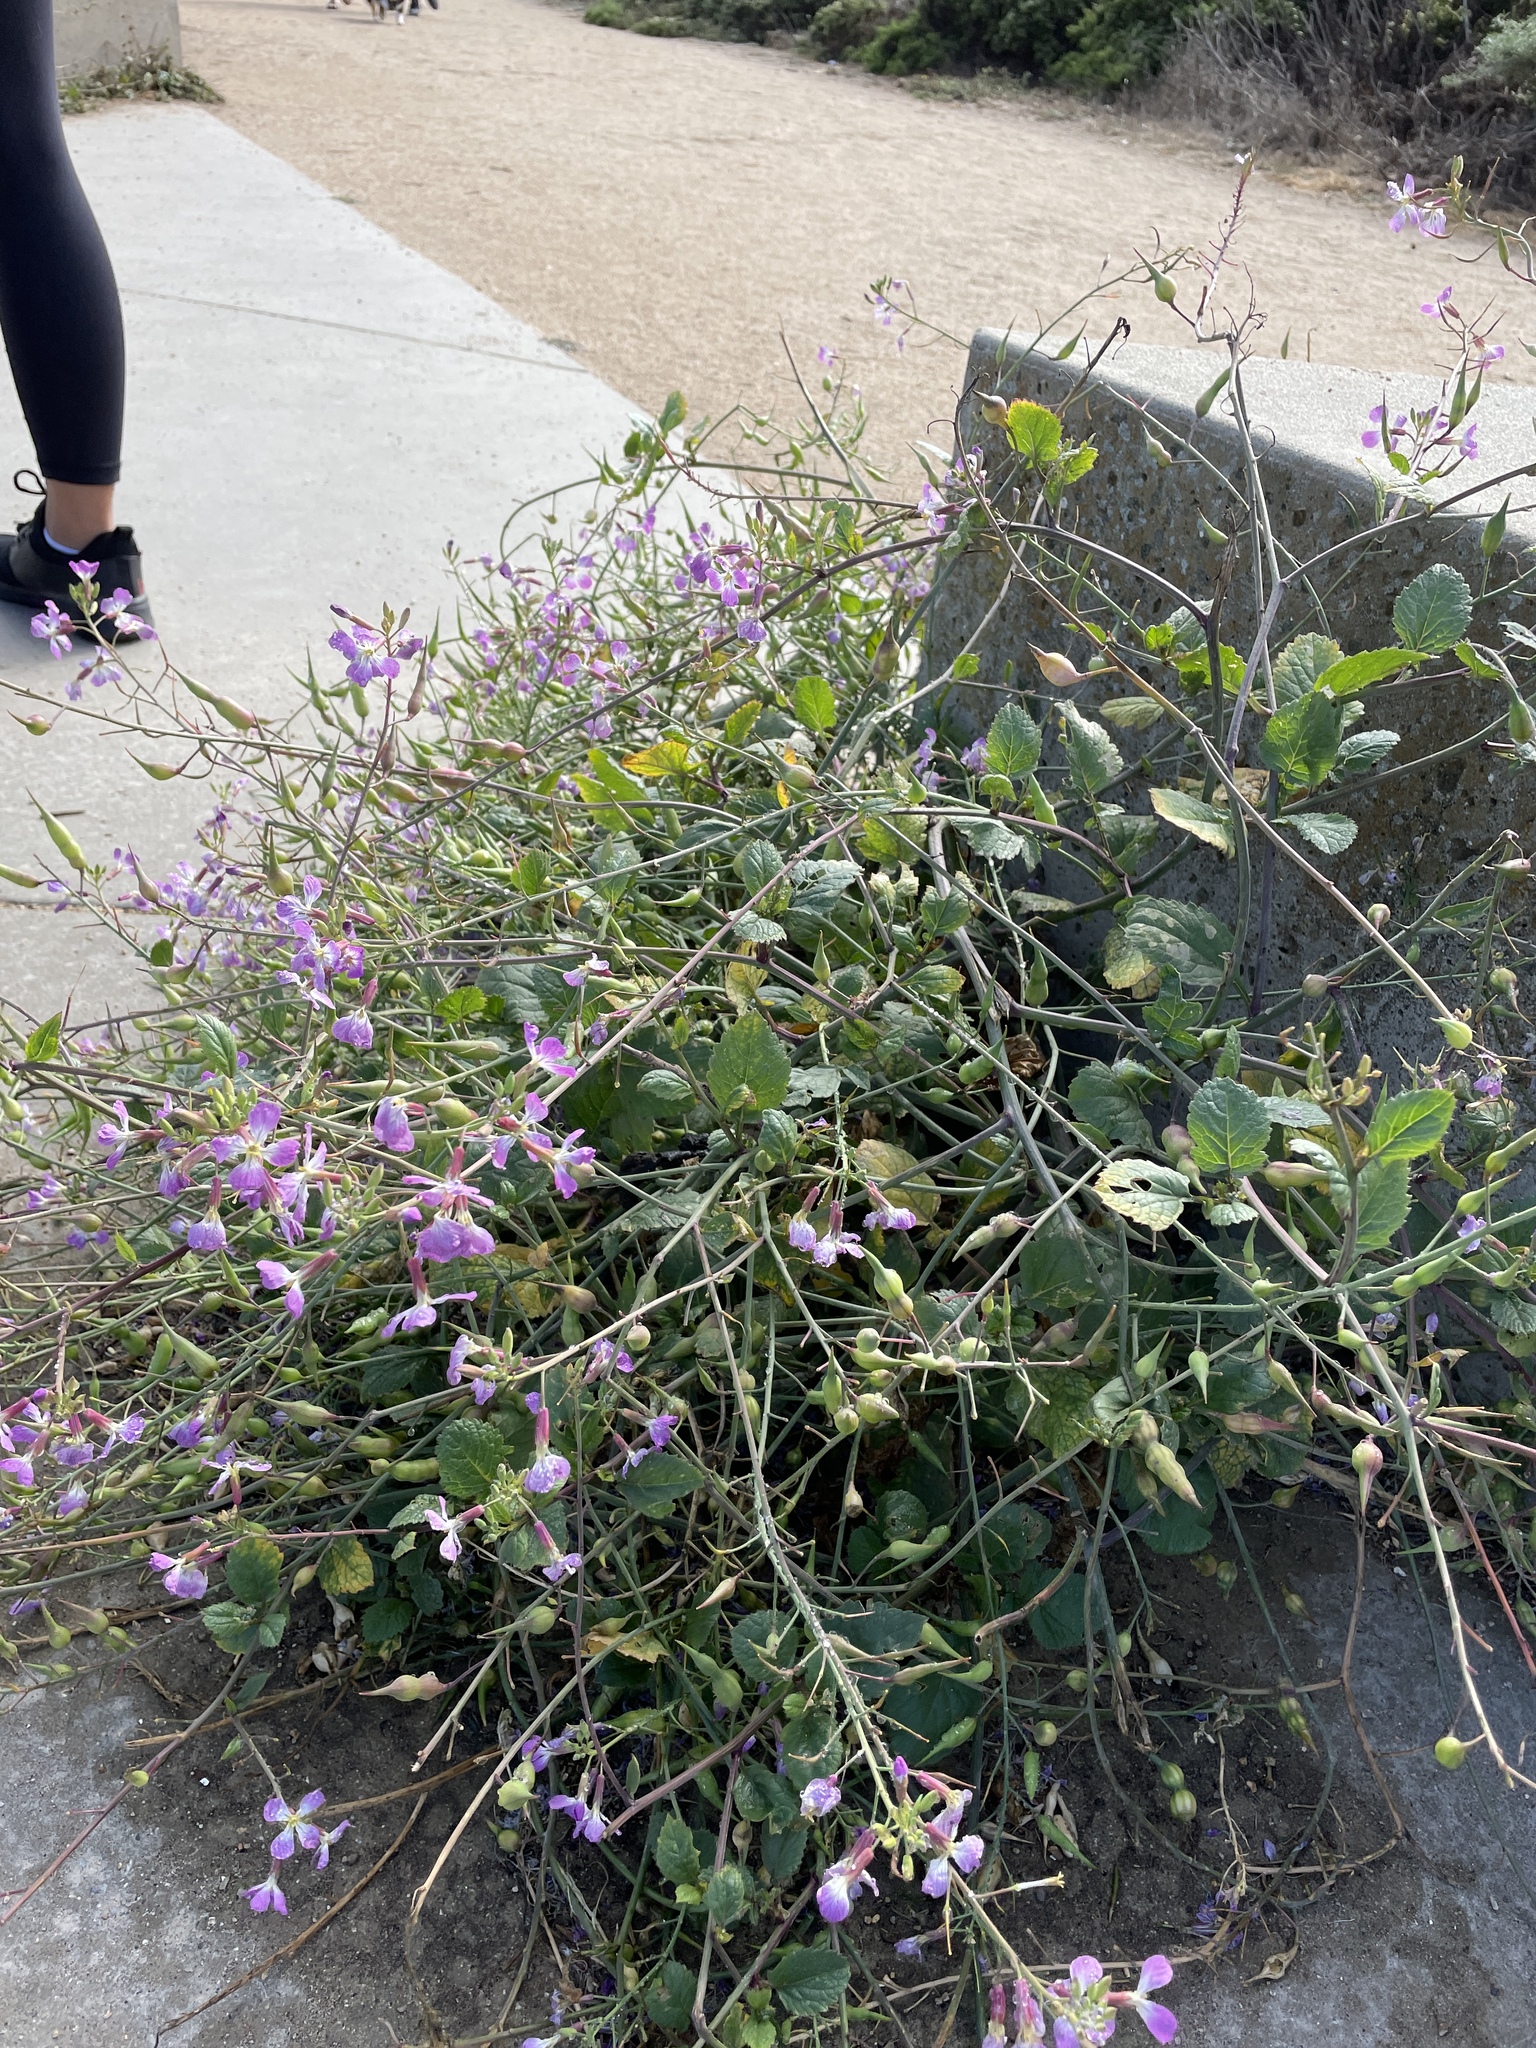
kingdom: Plantae
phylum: Tracheophyta
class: Magnoliopsida
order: Brassicales
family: Brassicaceae
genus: Raphanus
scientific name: Raphanus sativus
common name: Cultivated radish
